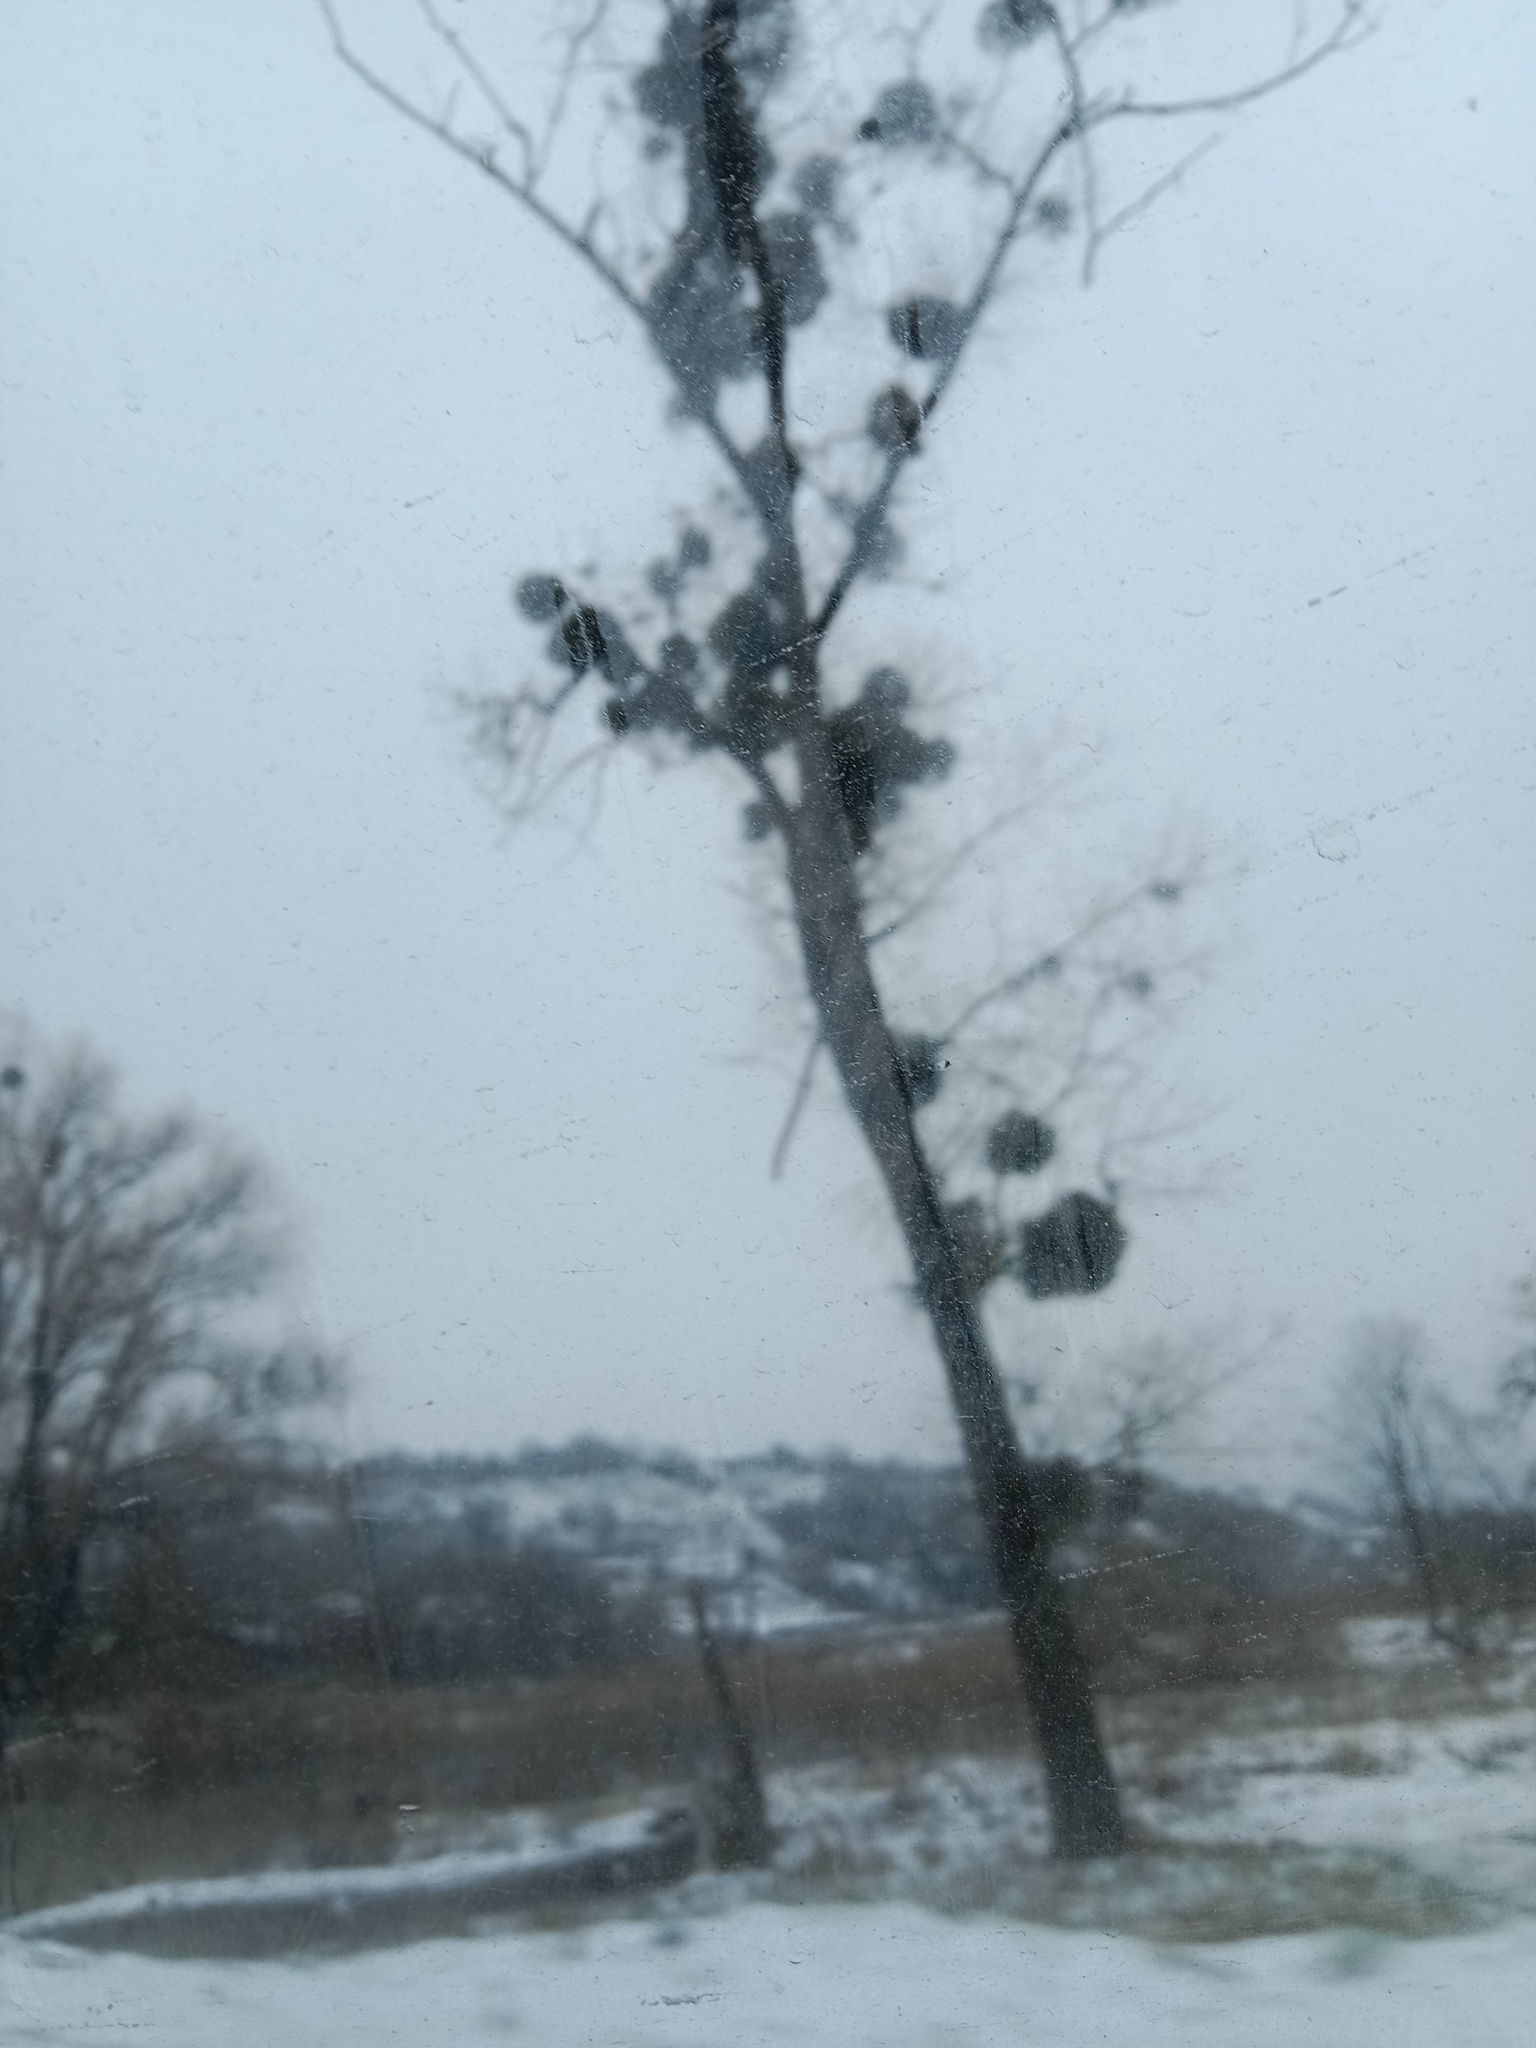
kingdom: Plantae
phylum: Tracheophyta
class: Magnoliopsida
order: Santalales
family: Viscaceae
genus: Viscum
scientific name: Viscum album
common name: Mistletoe
